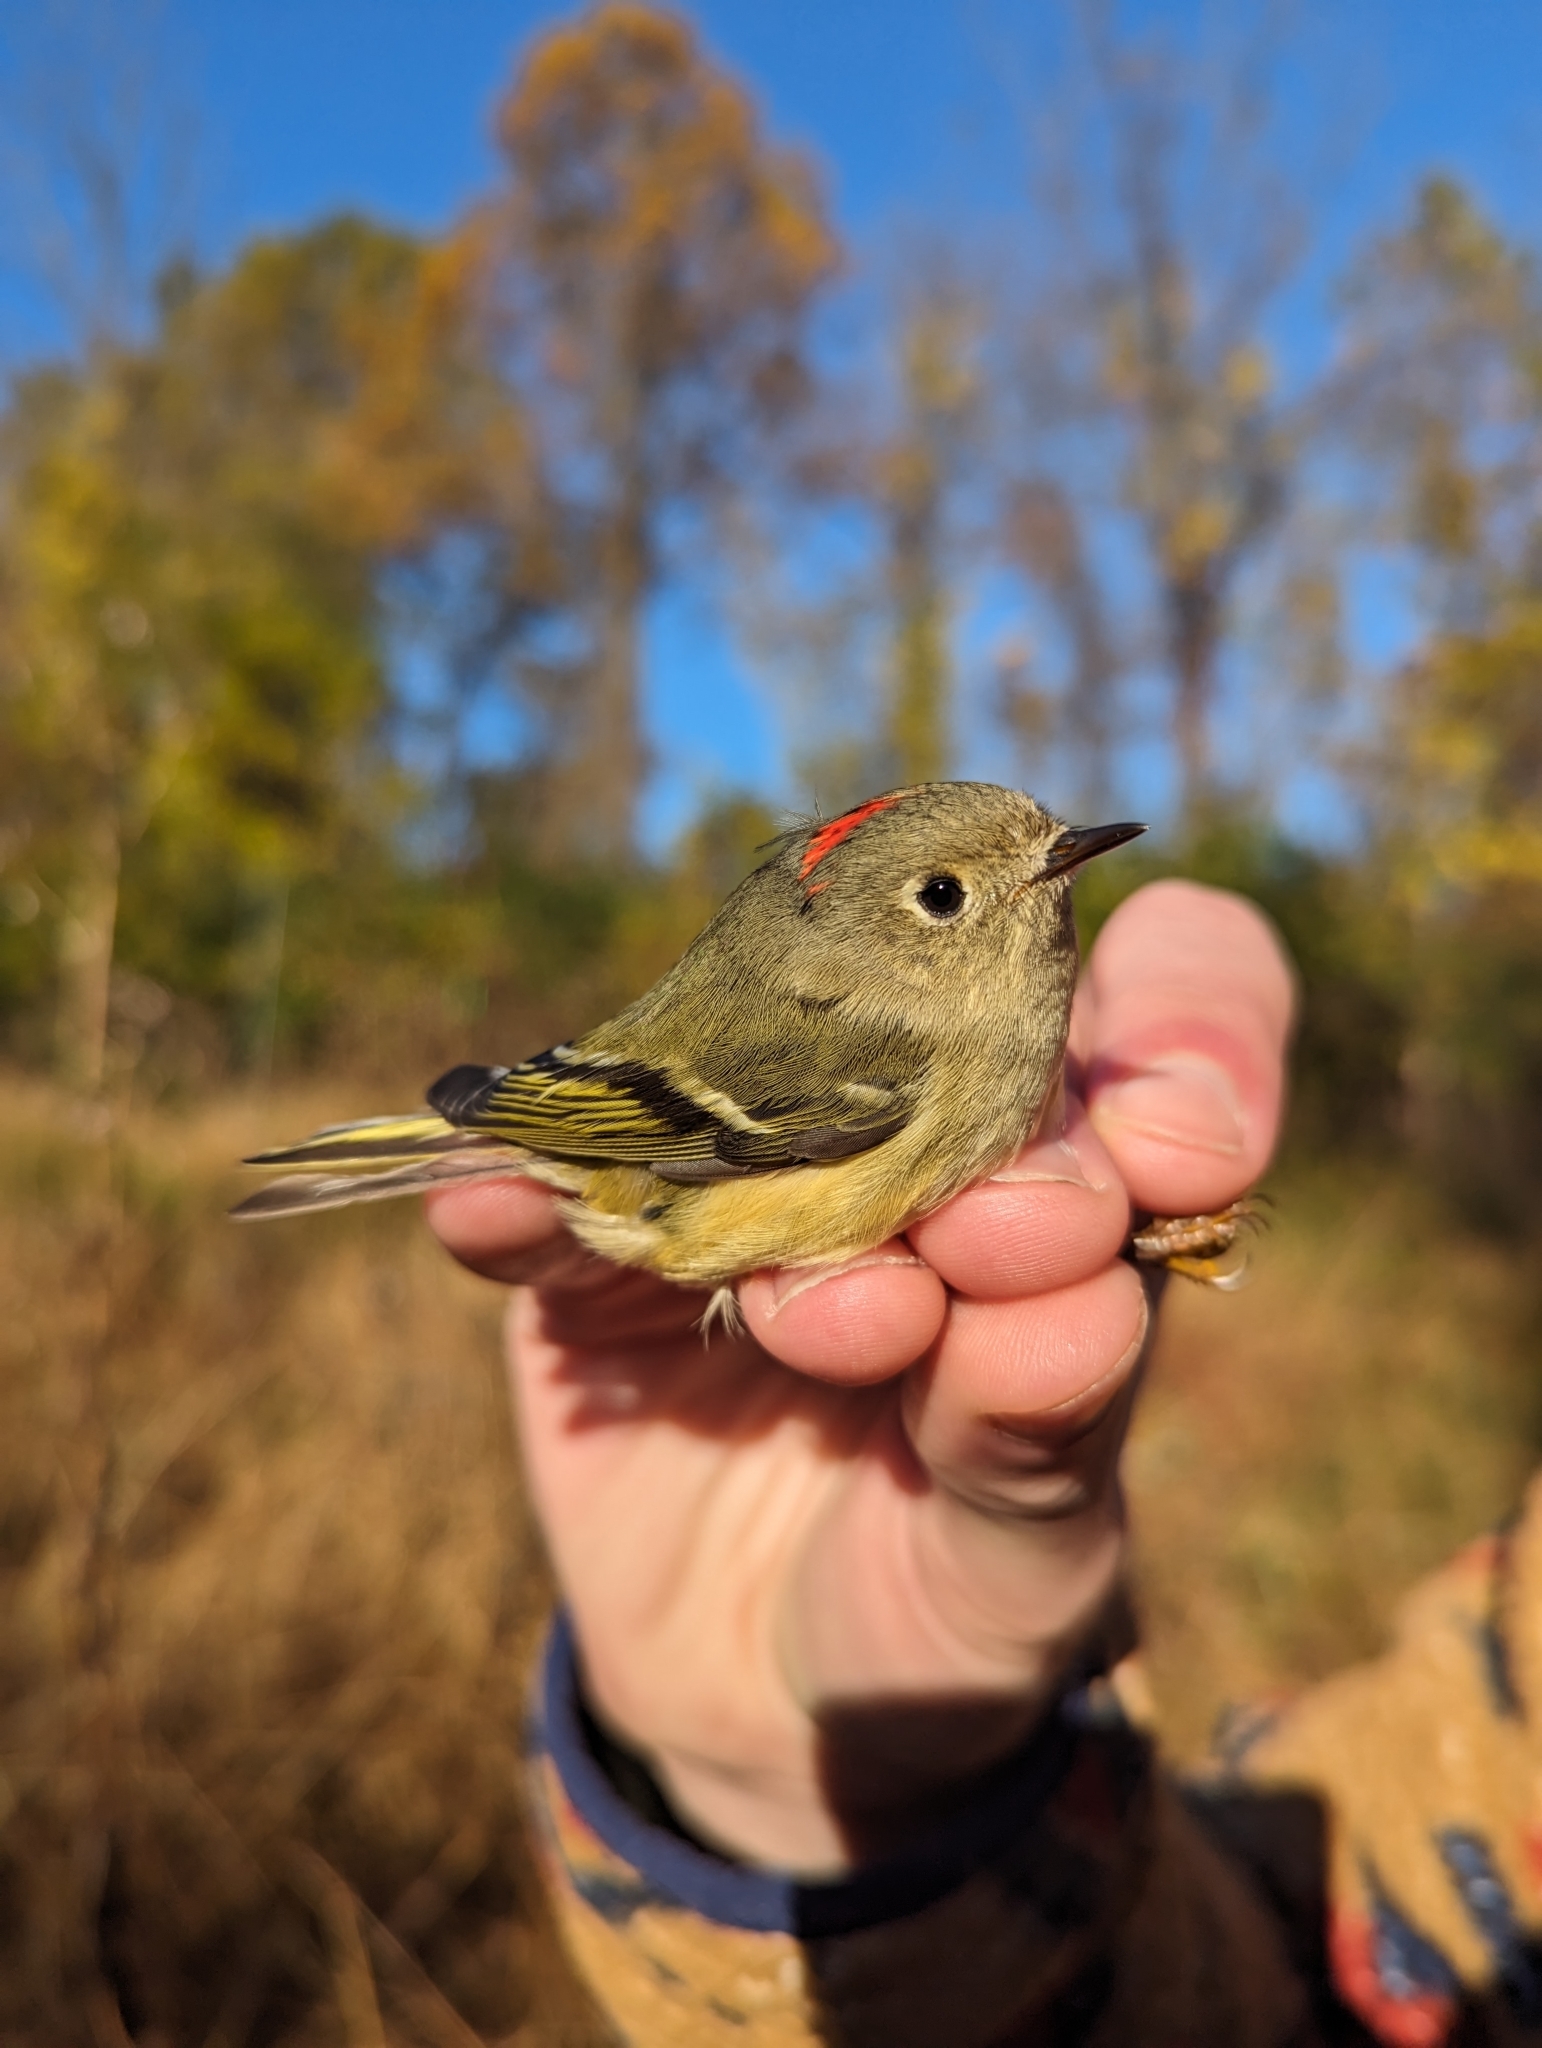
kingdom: Animalia
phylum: Chordata
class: Aves
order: Passeriformes
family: Regulidae
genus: Regulus
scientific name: Regulus calendula
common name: Ruby-crowned kinglet
